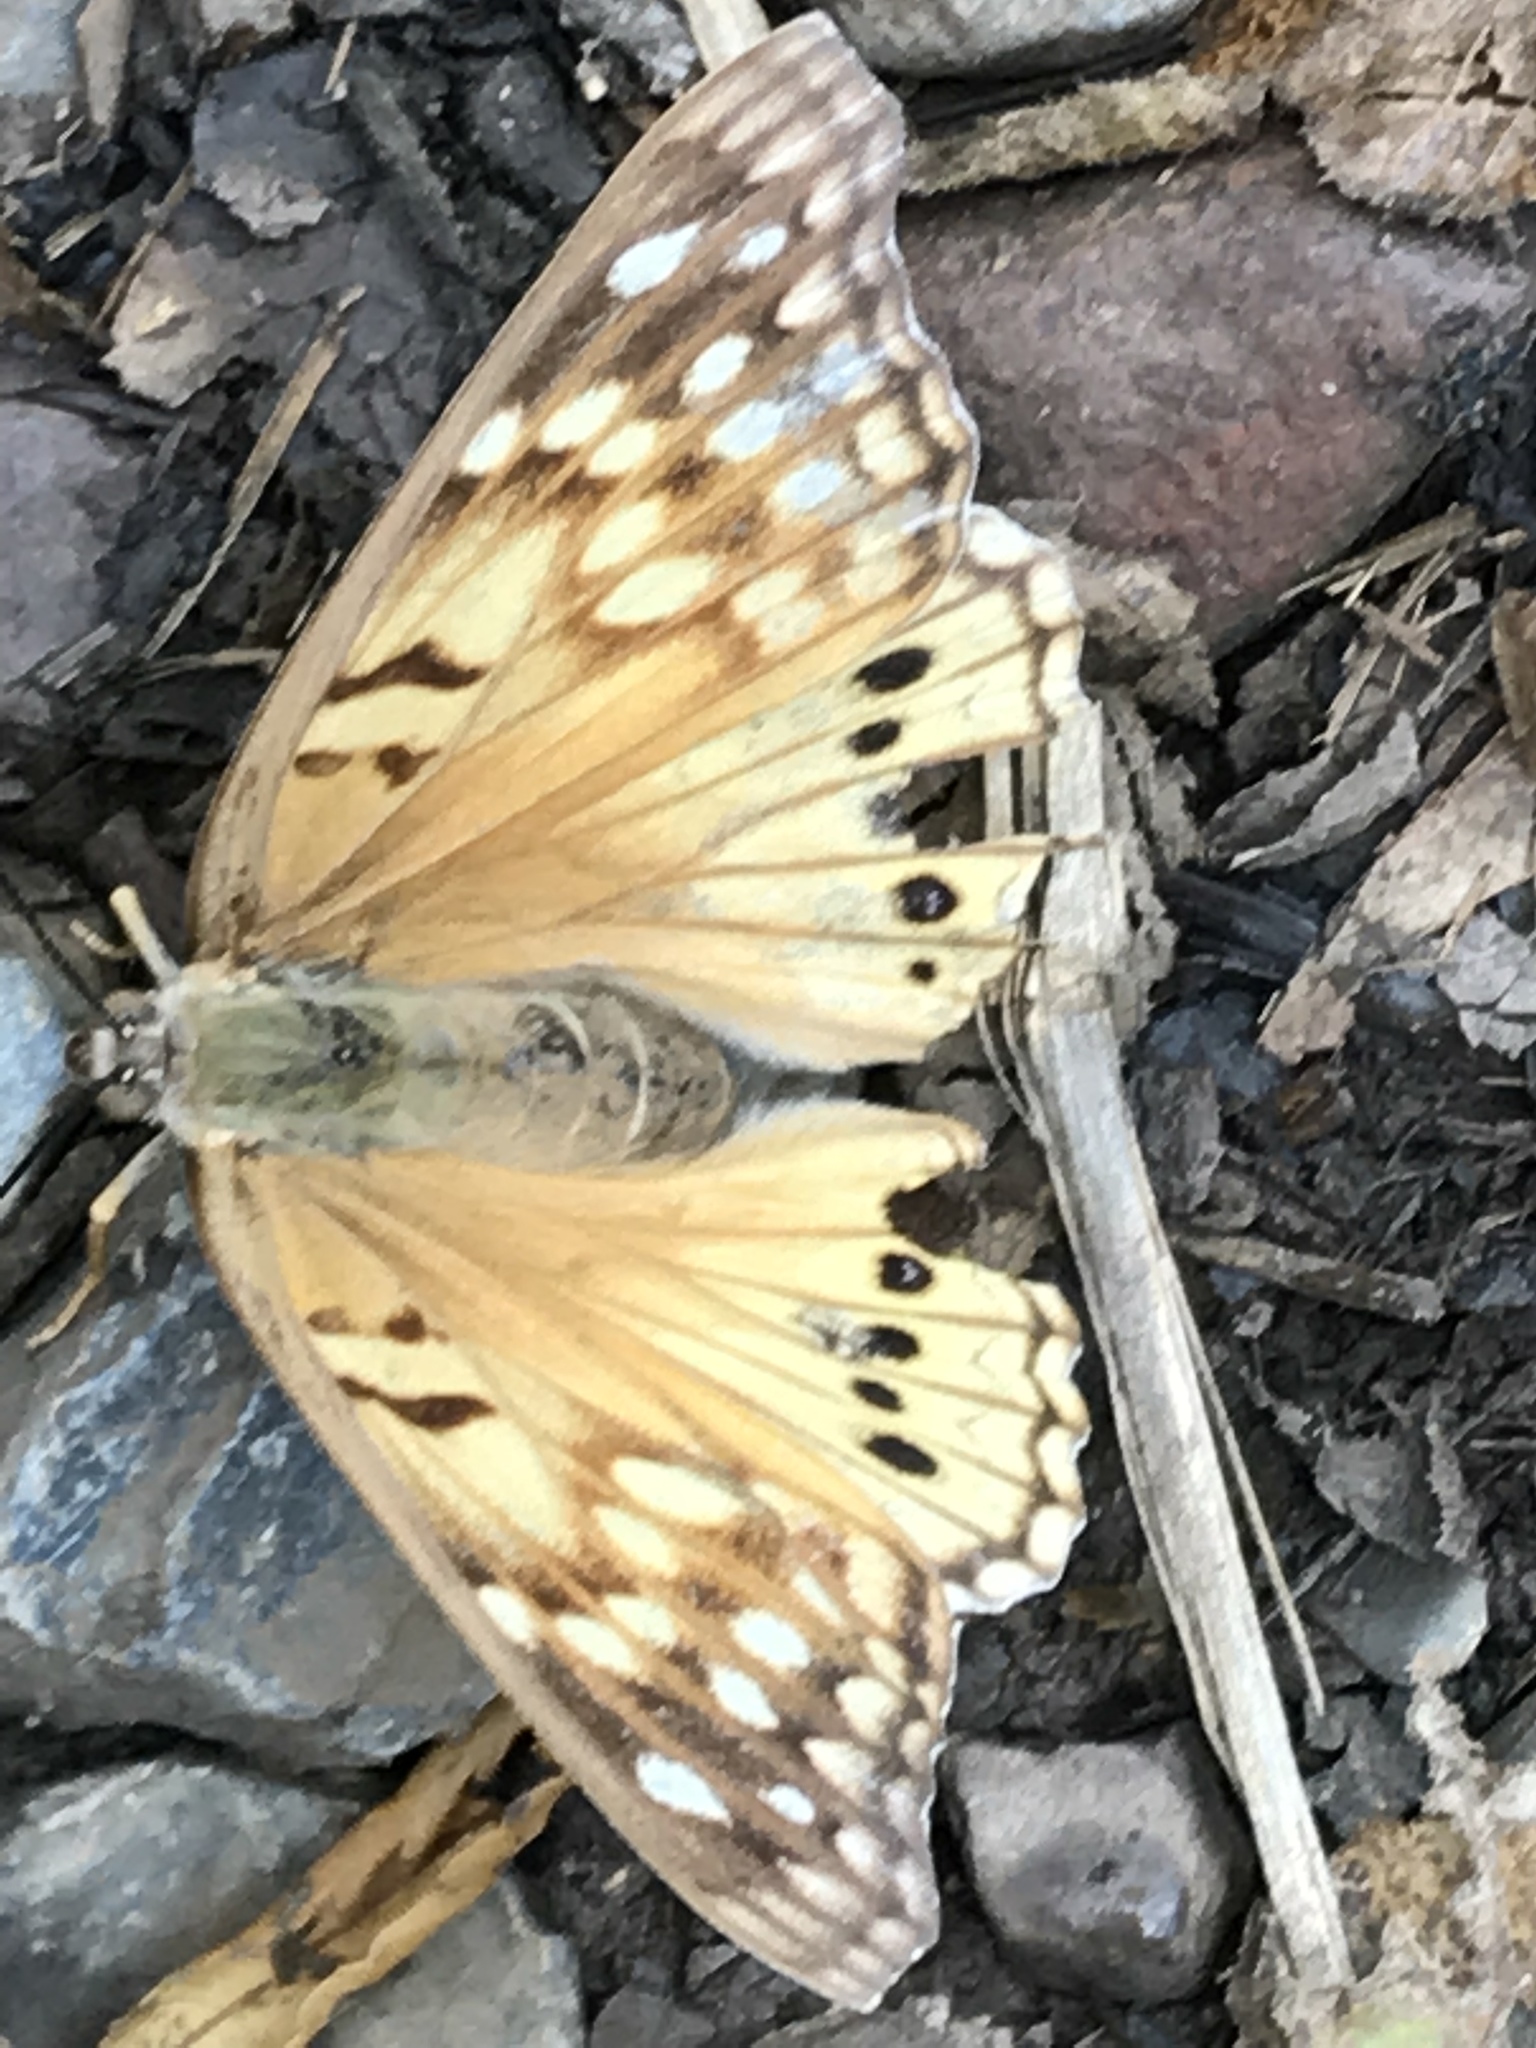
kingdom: Animalia
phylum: Arthropoda
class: Insecta
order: Lepidoptera
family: Nymphalidae
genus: Asterocampa
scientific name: Asterocampa clyton
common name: Tawny emperor
